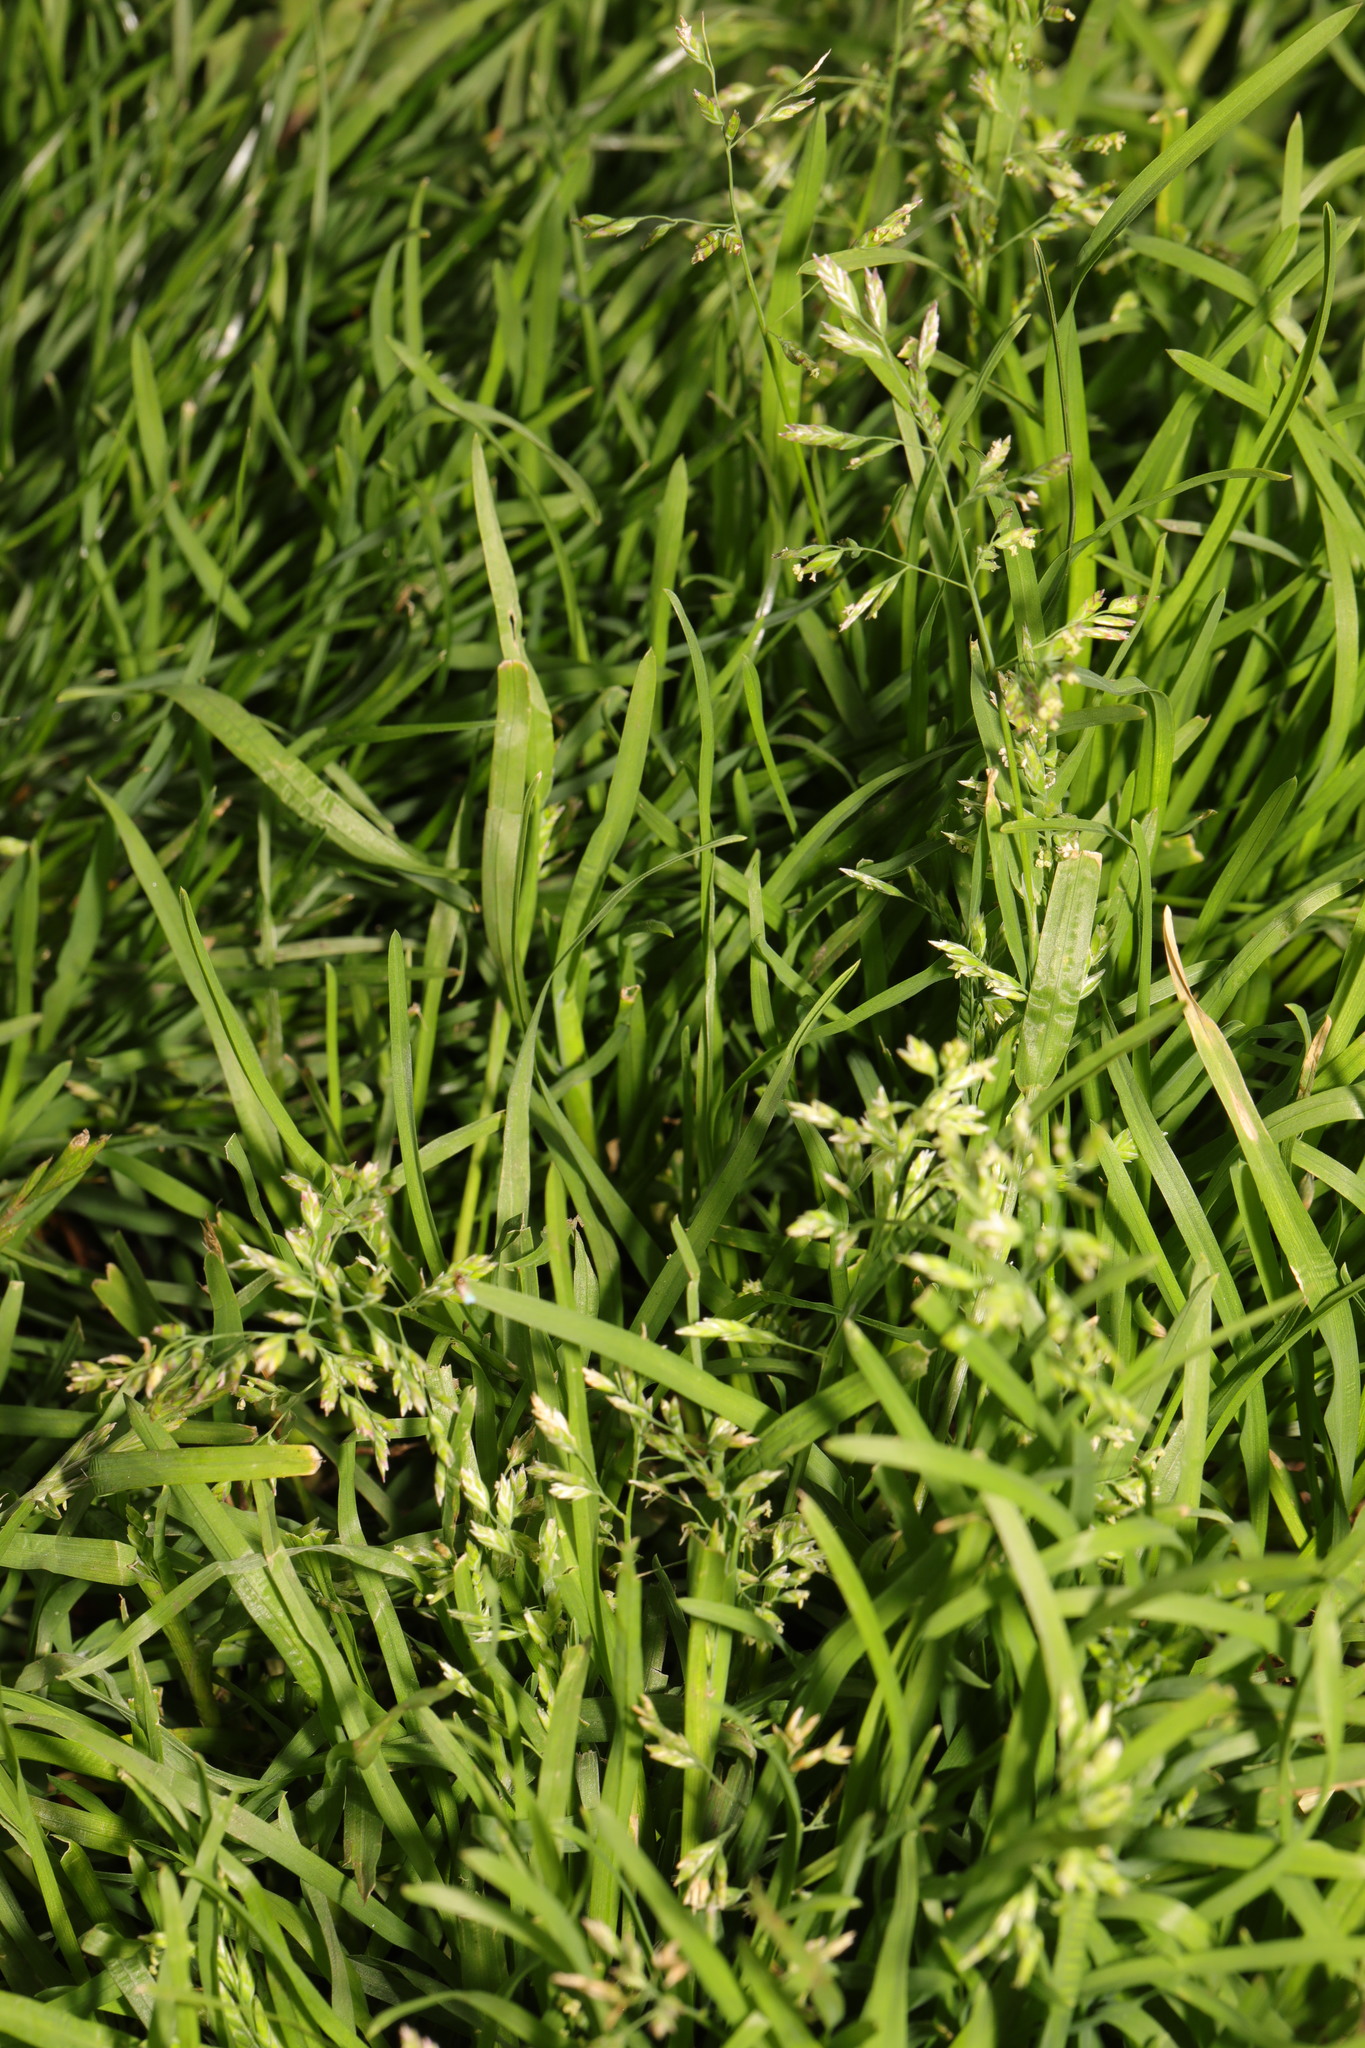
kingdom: Plantae
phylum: Tracheophyta
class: Liliopsida
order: Poales
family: Poaceae
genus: Poa
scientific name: Poa annua
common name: Annual bluegrass
